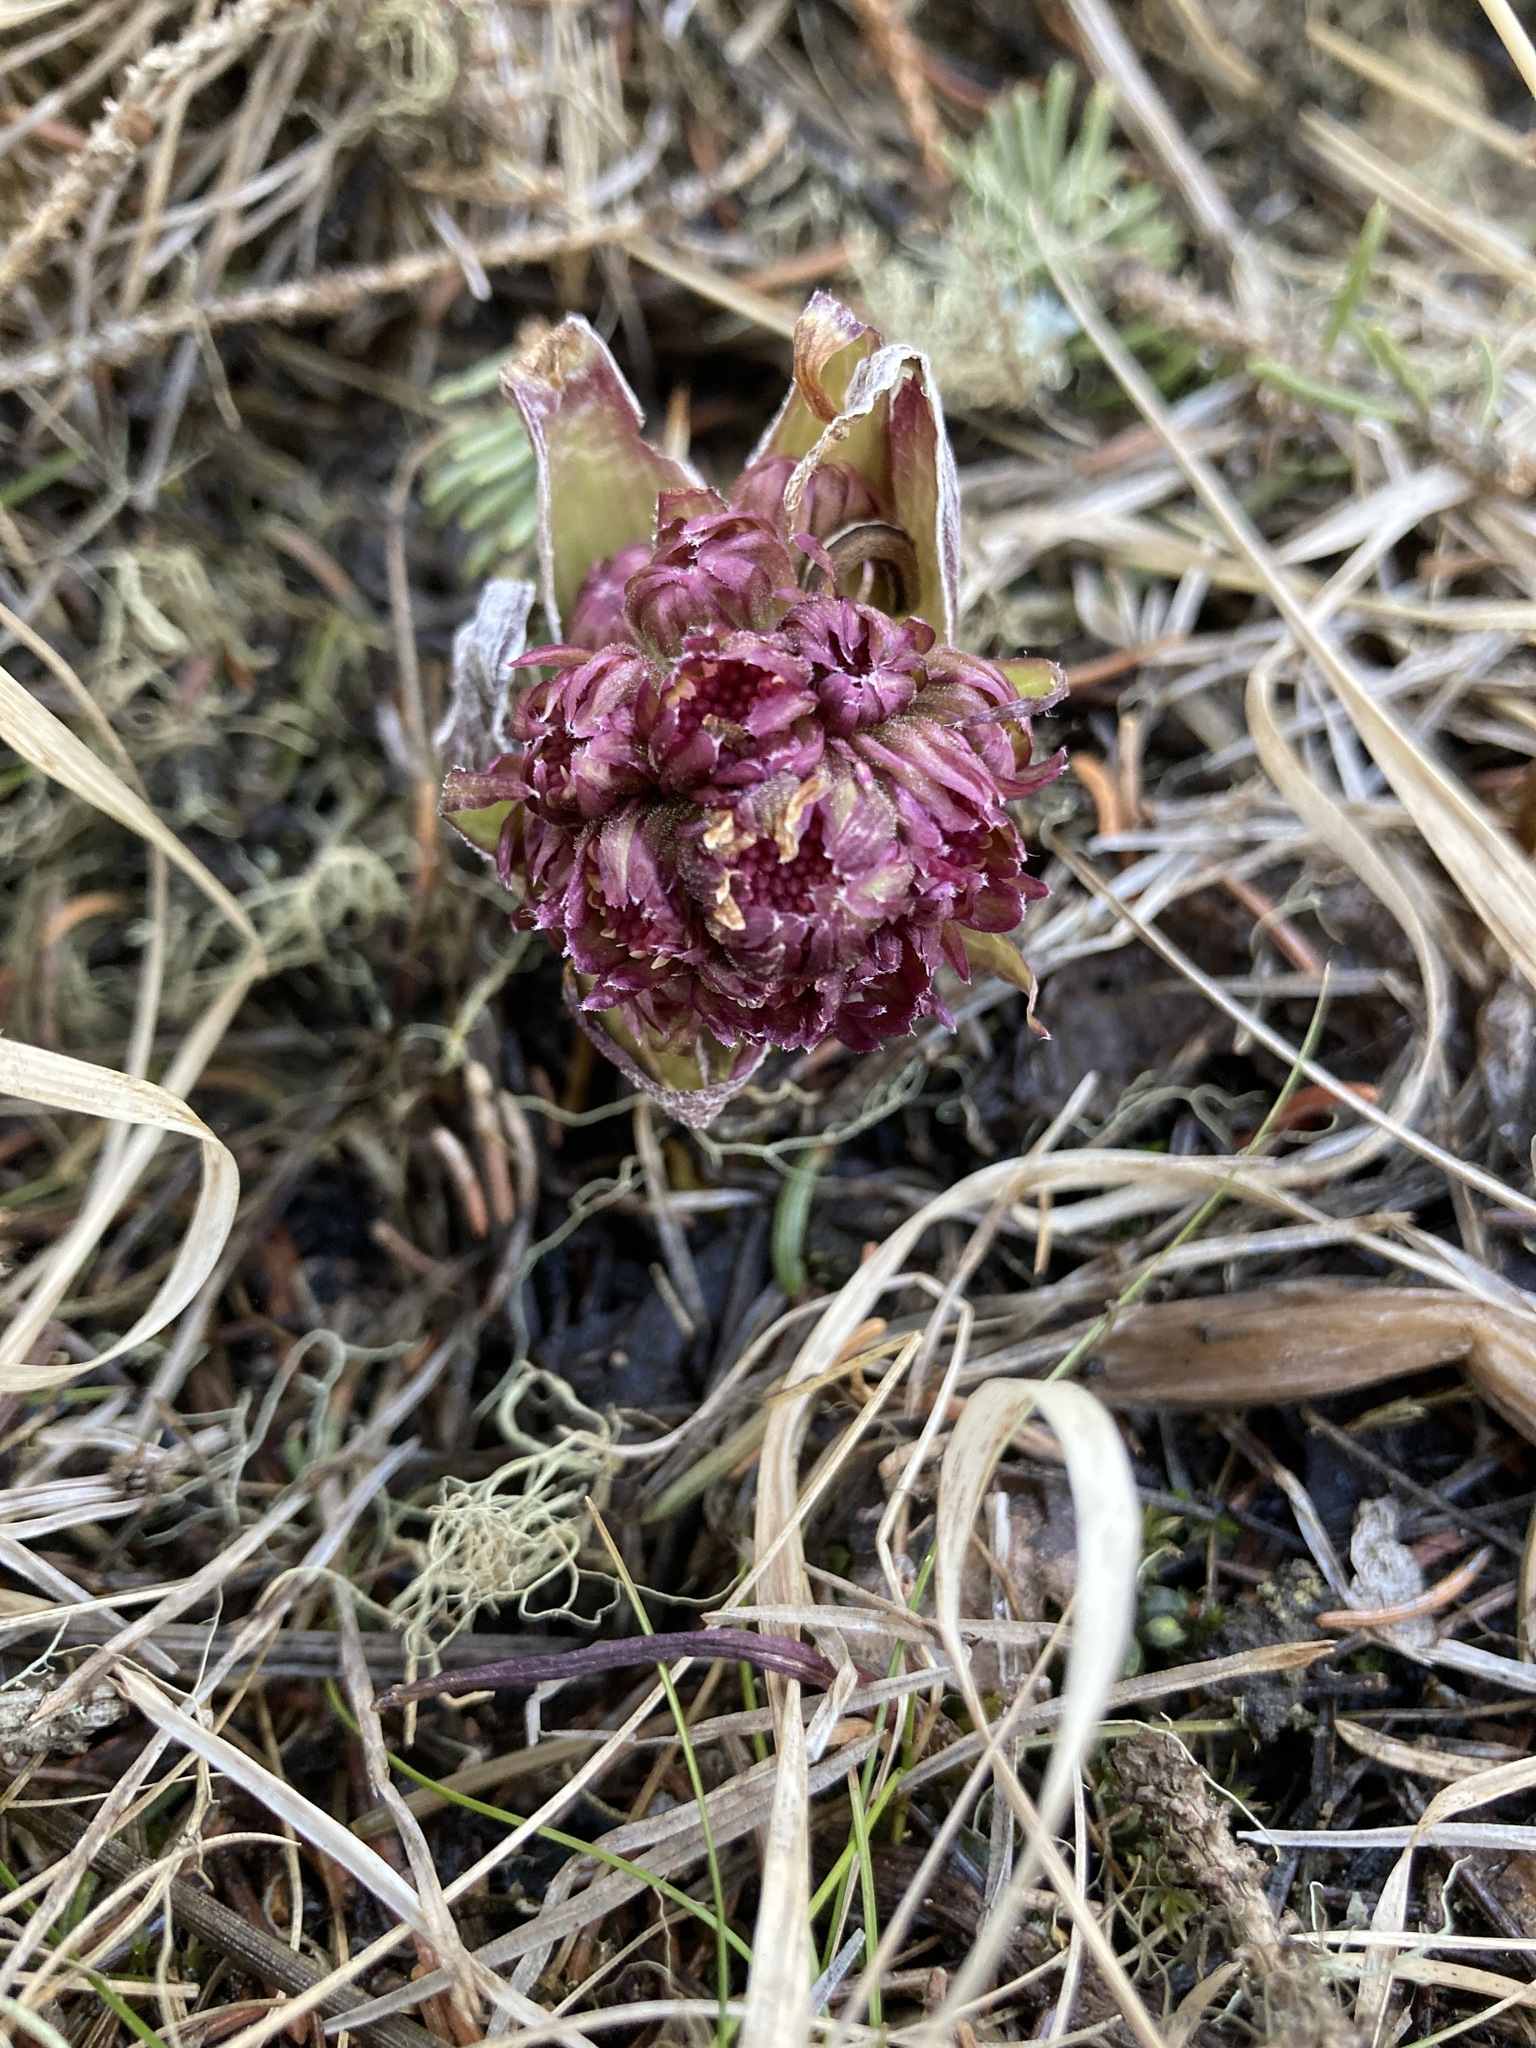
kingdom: Plantae
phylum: Tracheophyta
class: Magnoliopsida
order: Asterales
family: Asteraceae
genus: Petasites
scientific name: Petasites frigidus
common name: Arctic butterbur
